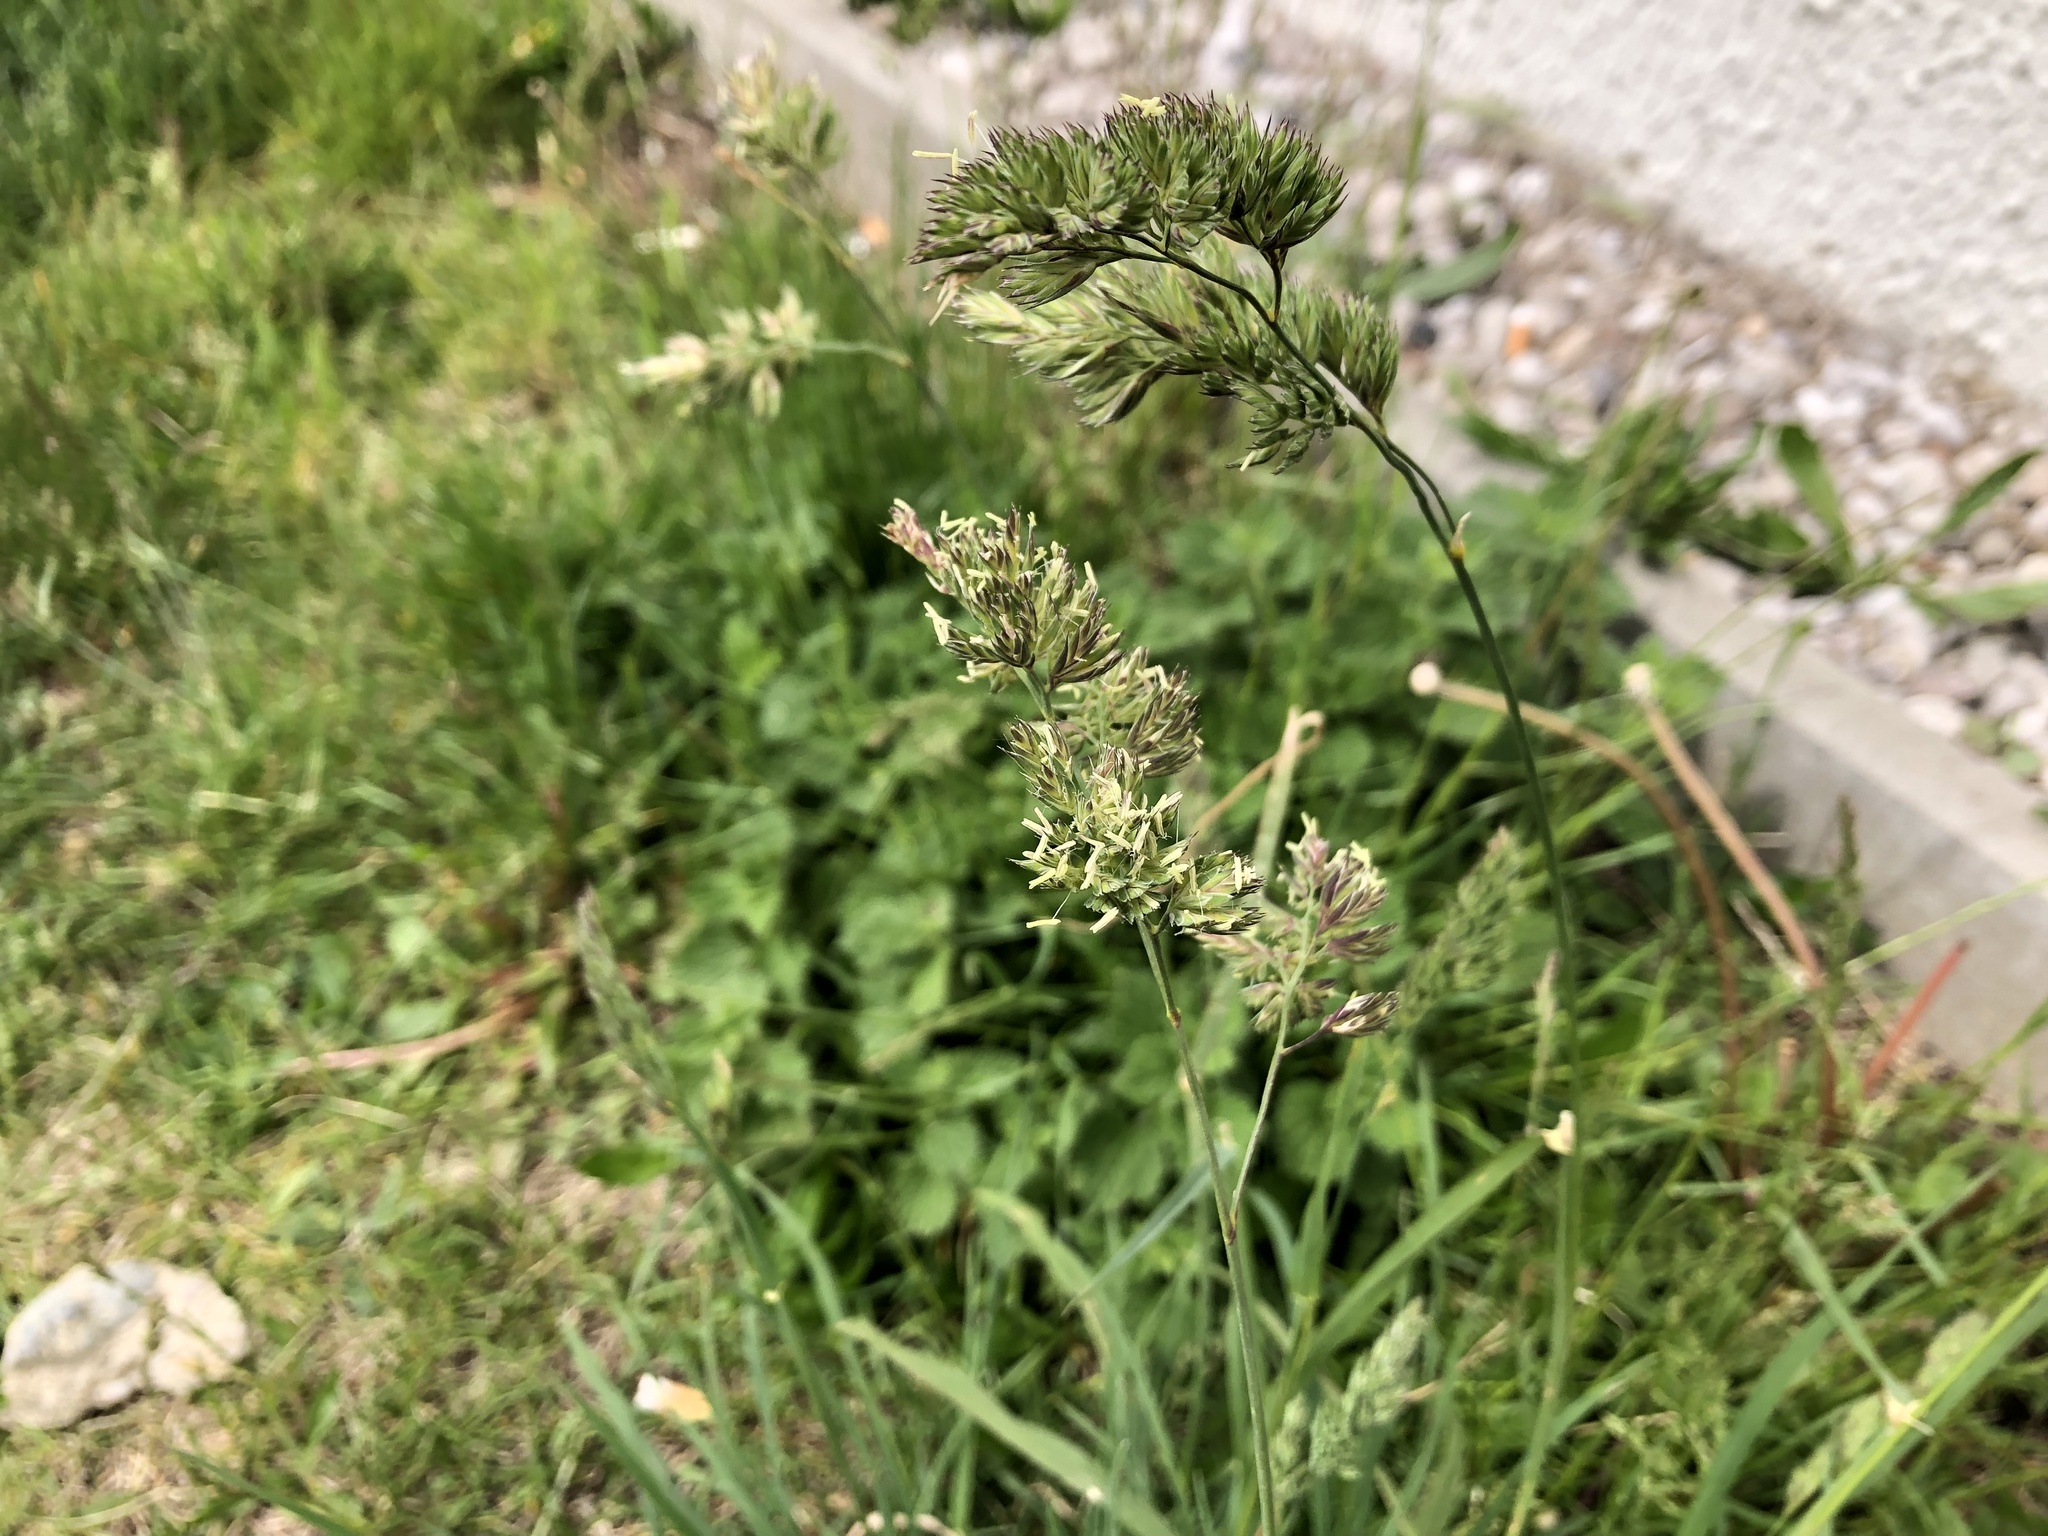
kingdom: Plantae
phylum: Tracheophyta
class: Liliopsida
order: Poales
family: Poaceae
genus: Dactylis
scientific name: Dactylis glomerata
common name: Orchardgrass
